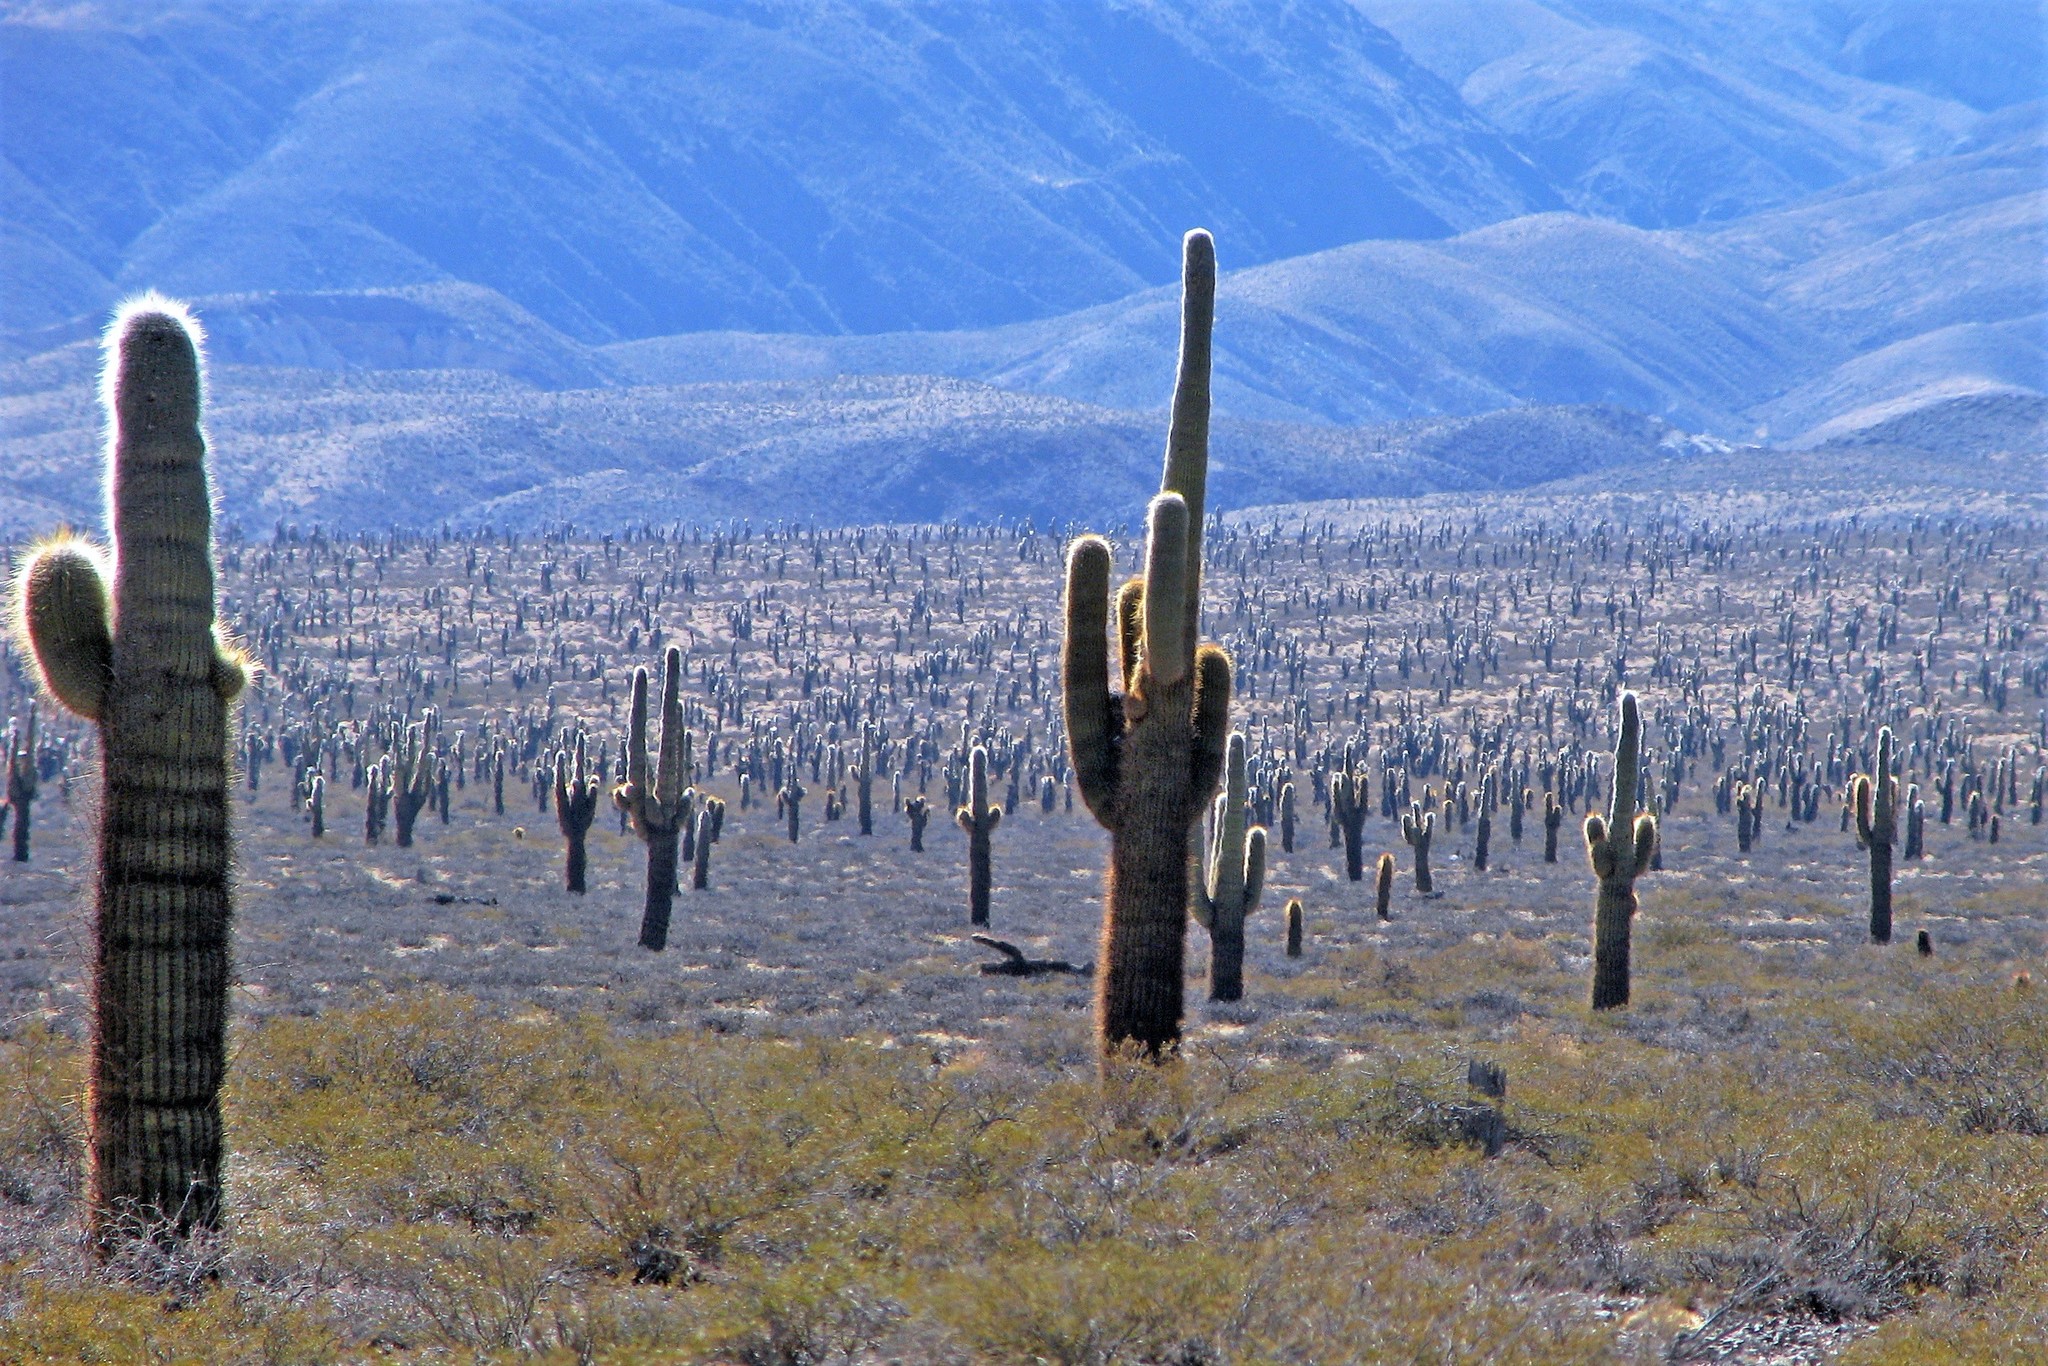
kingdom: Plantae
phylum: Tracheophyta
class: Magnoliopsida
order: Caryophyllales
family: Cactaceae
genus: Leucostele
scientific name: Leucostele atacamensis
